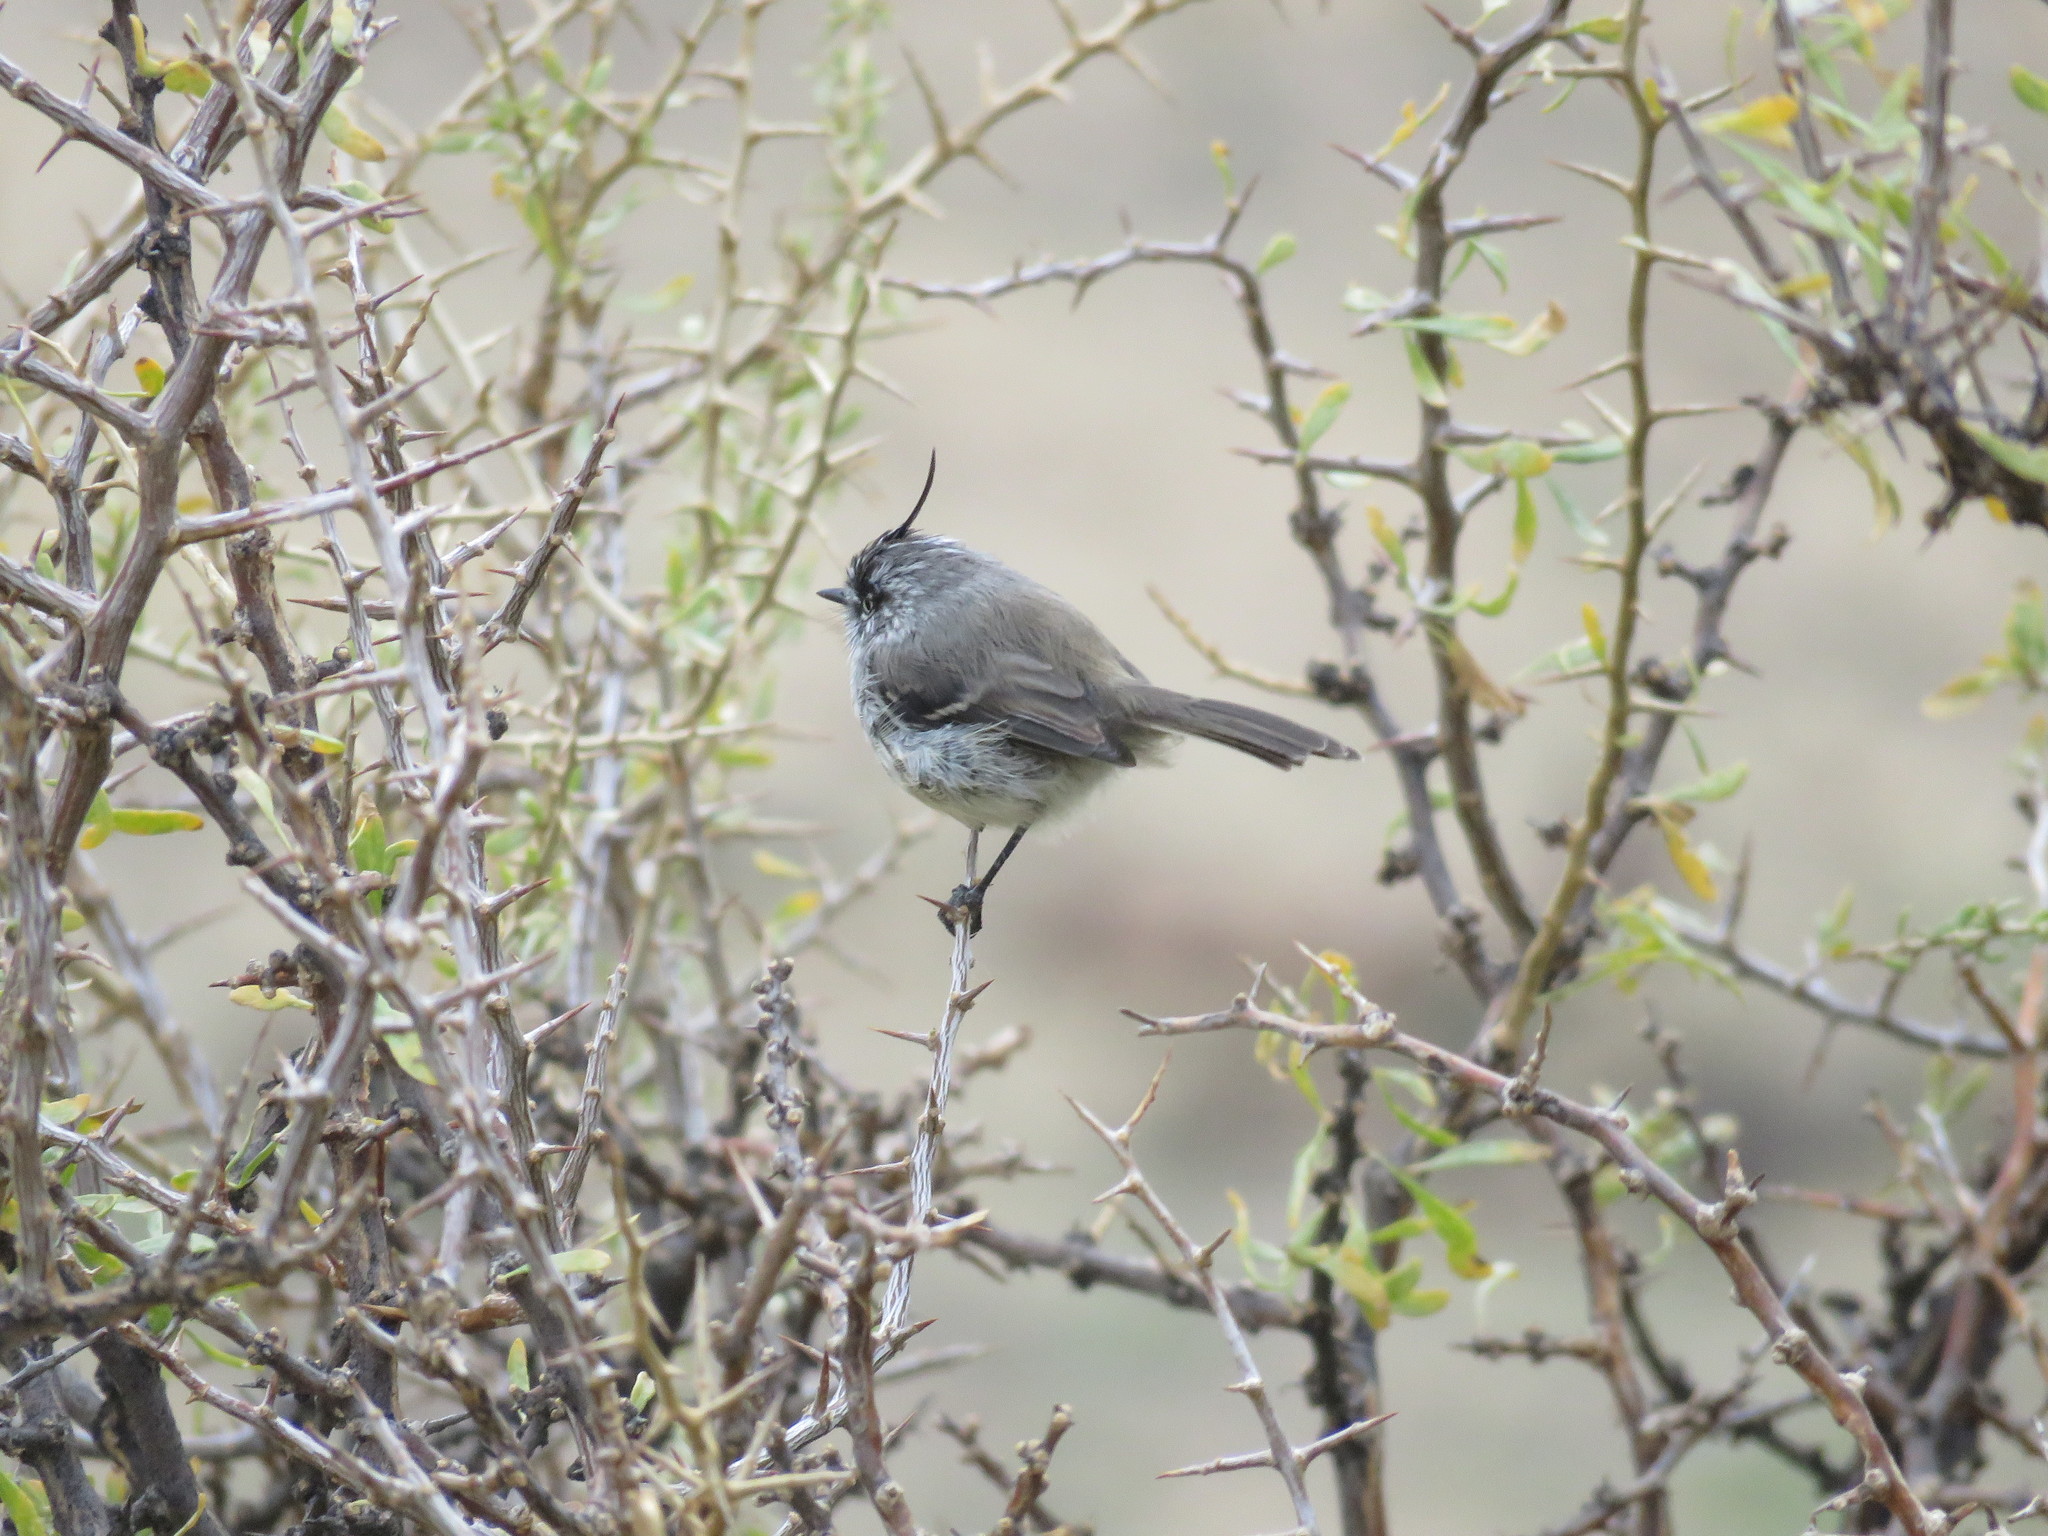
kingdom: Animalia
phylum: Chordata
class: Aves
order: Passeriformes
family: Tyrannidae
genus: Anairetes
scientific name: Anairetes parulus
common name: Tufted tit-tyrant
